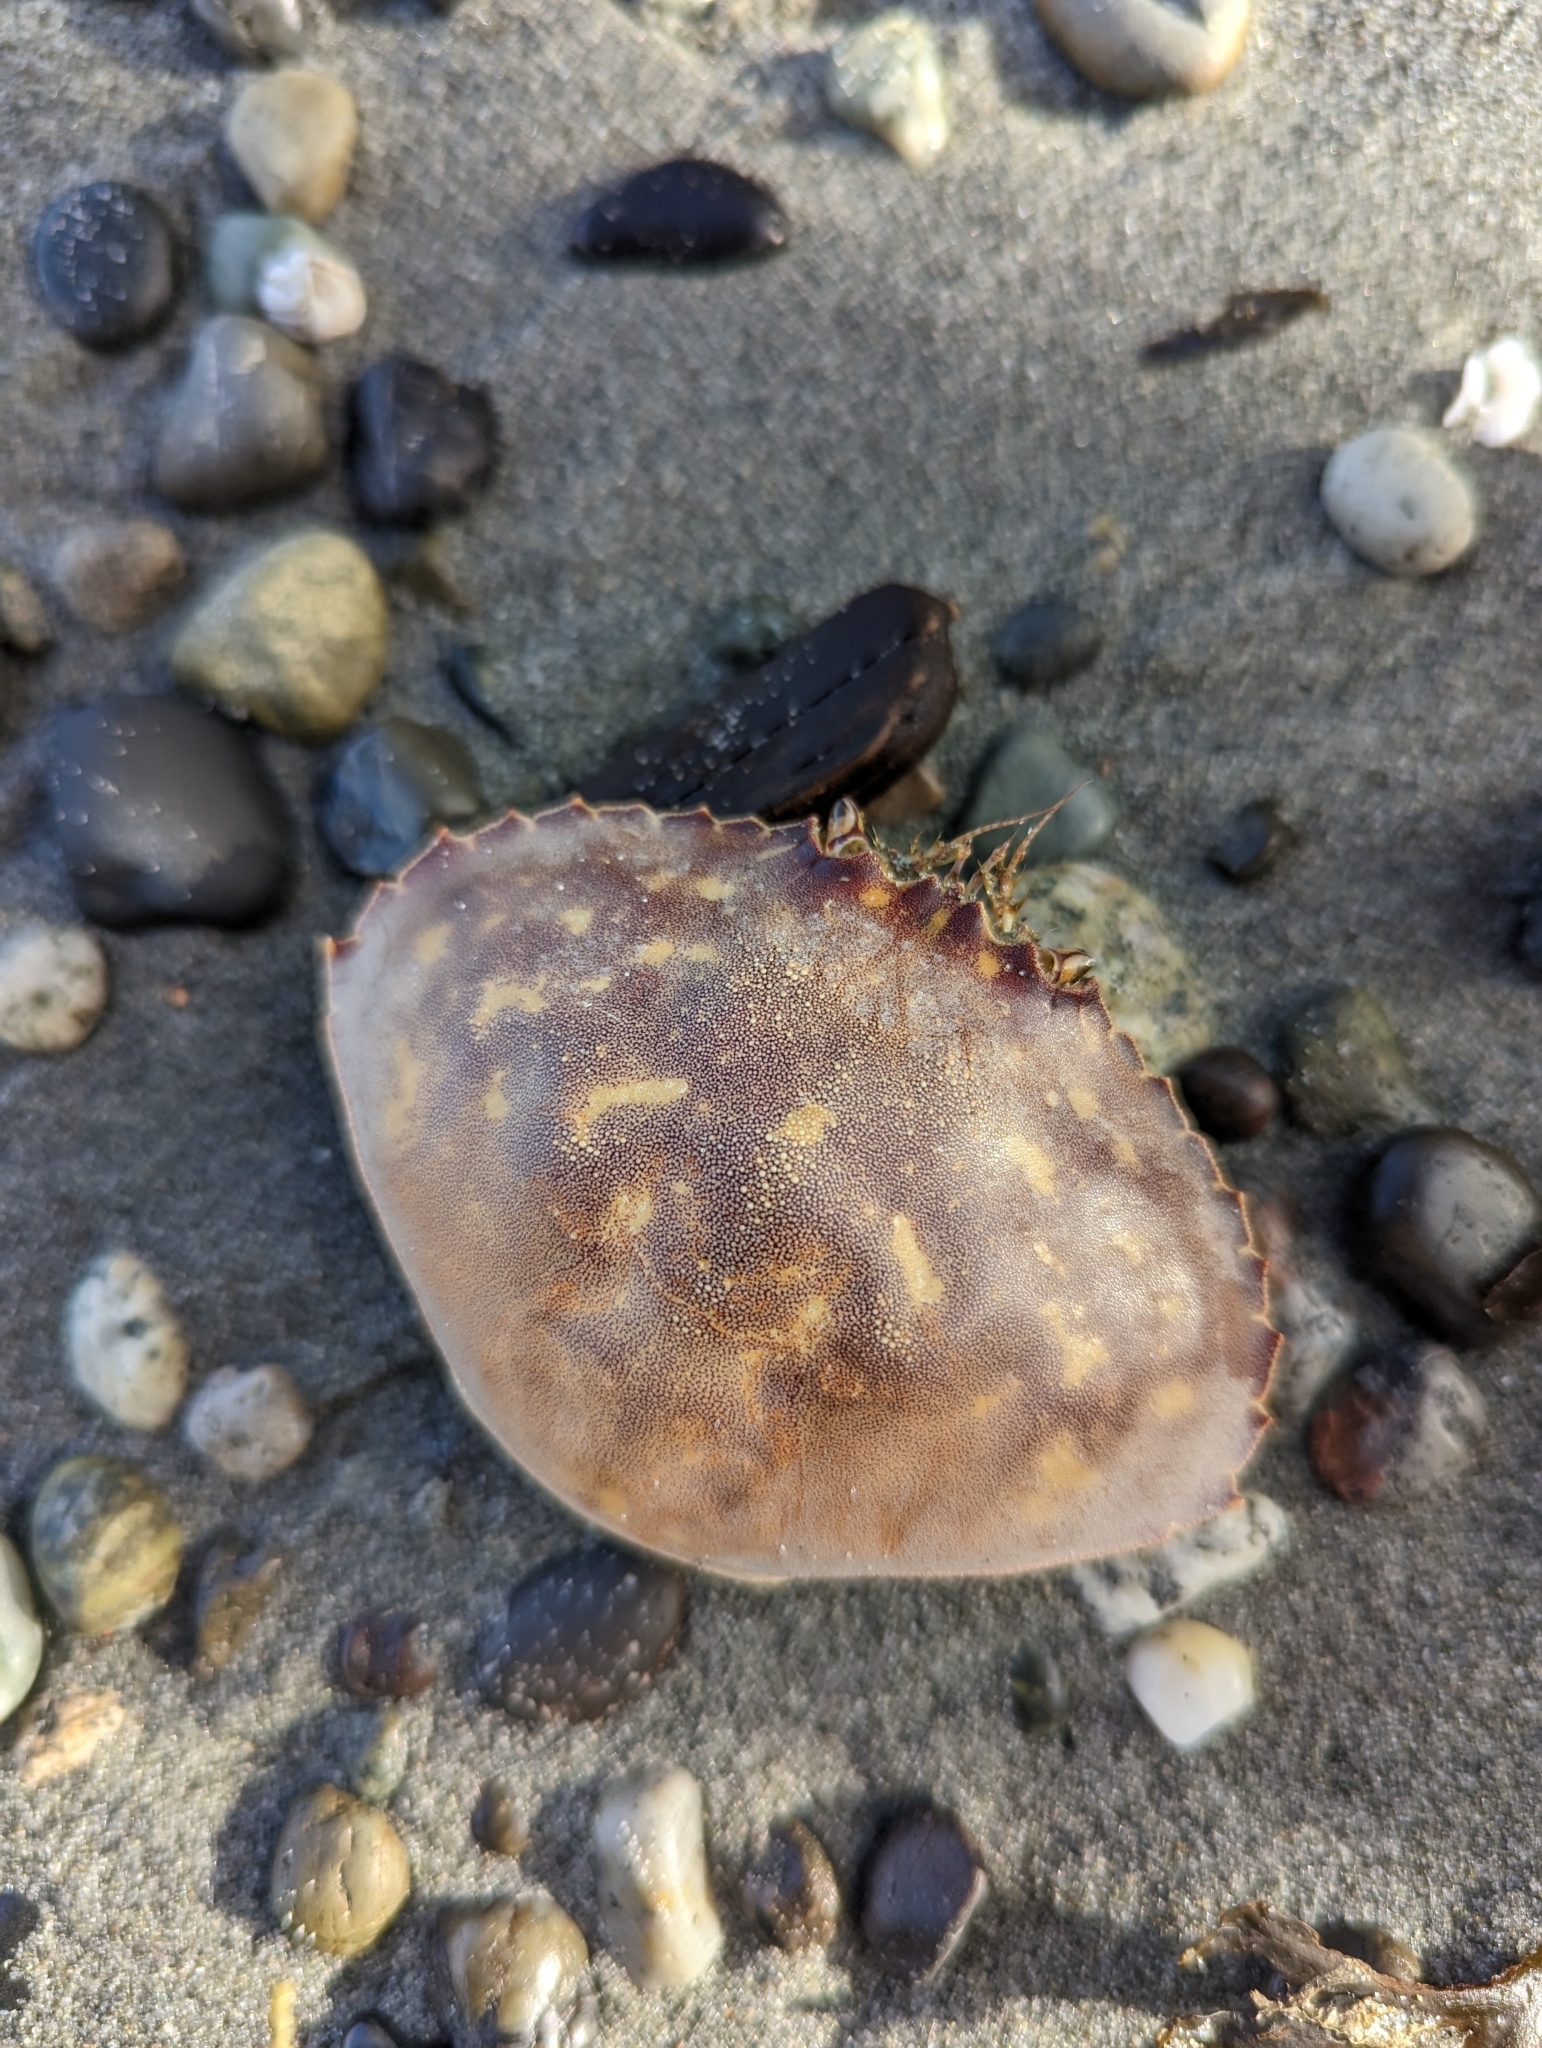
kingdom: Animalia
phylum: Arthropoda
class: Malacostraca
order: Decapoda
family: Cancridae
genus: Metacarcinus
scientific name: Metacarcinus gracilis
